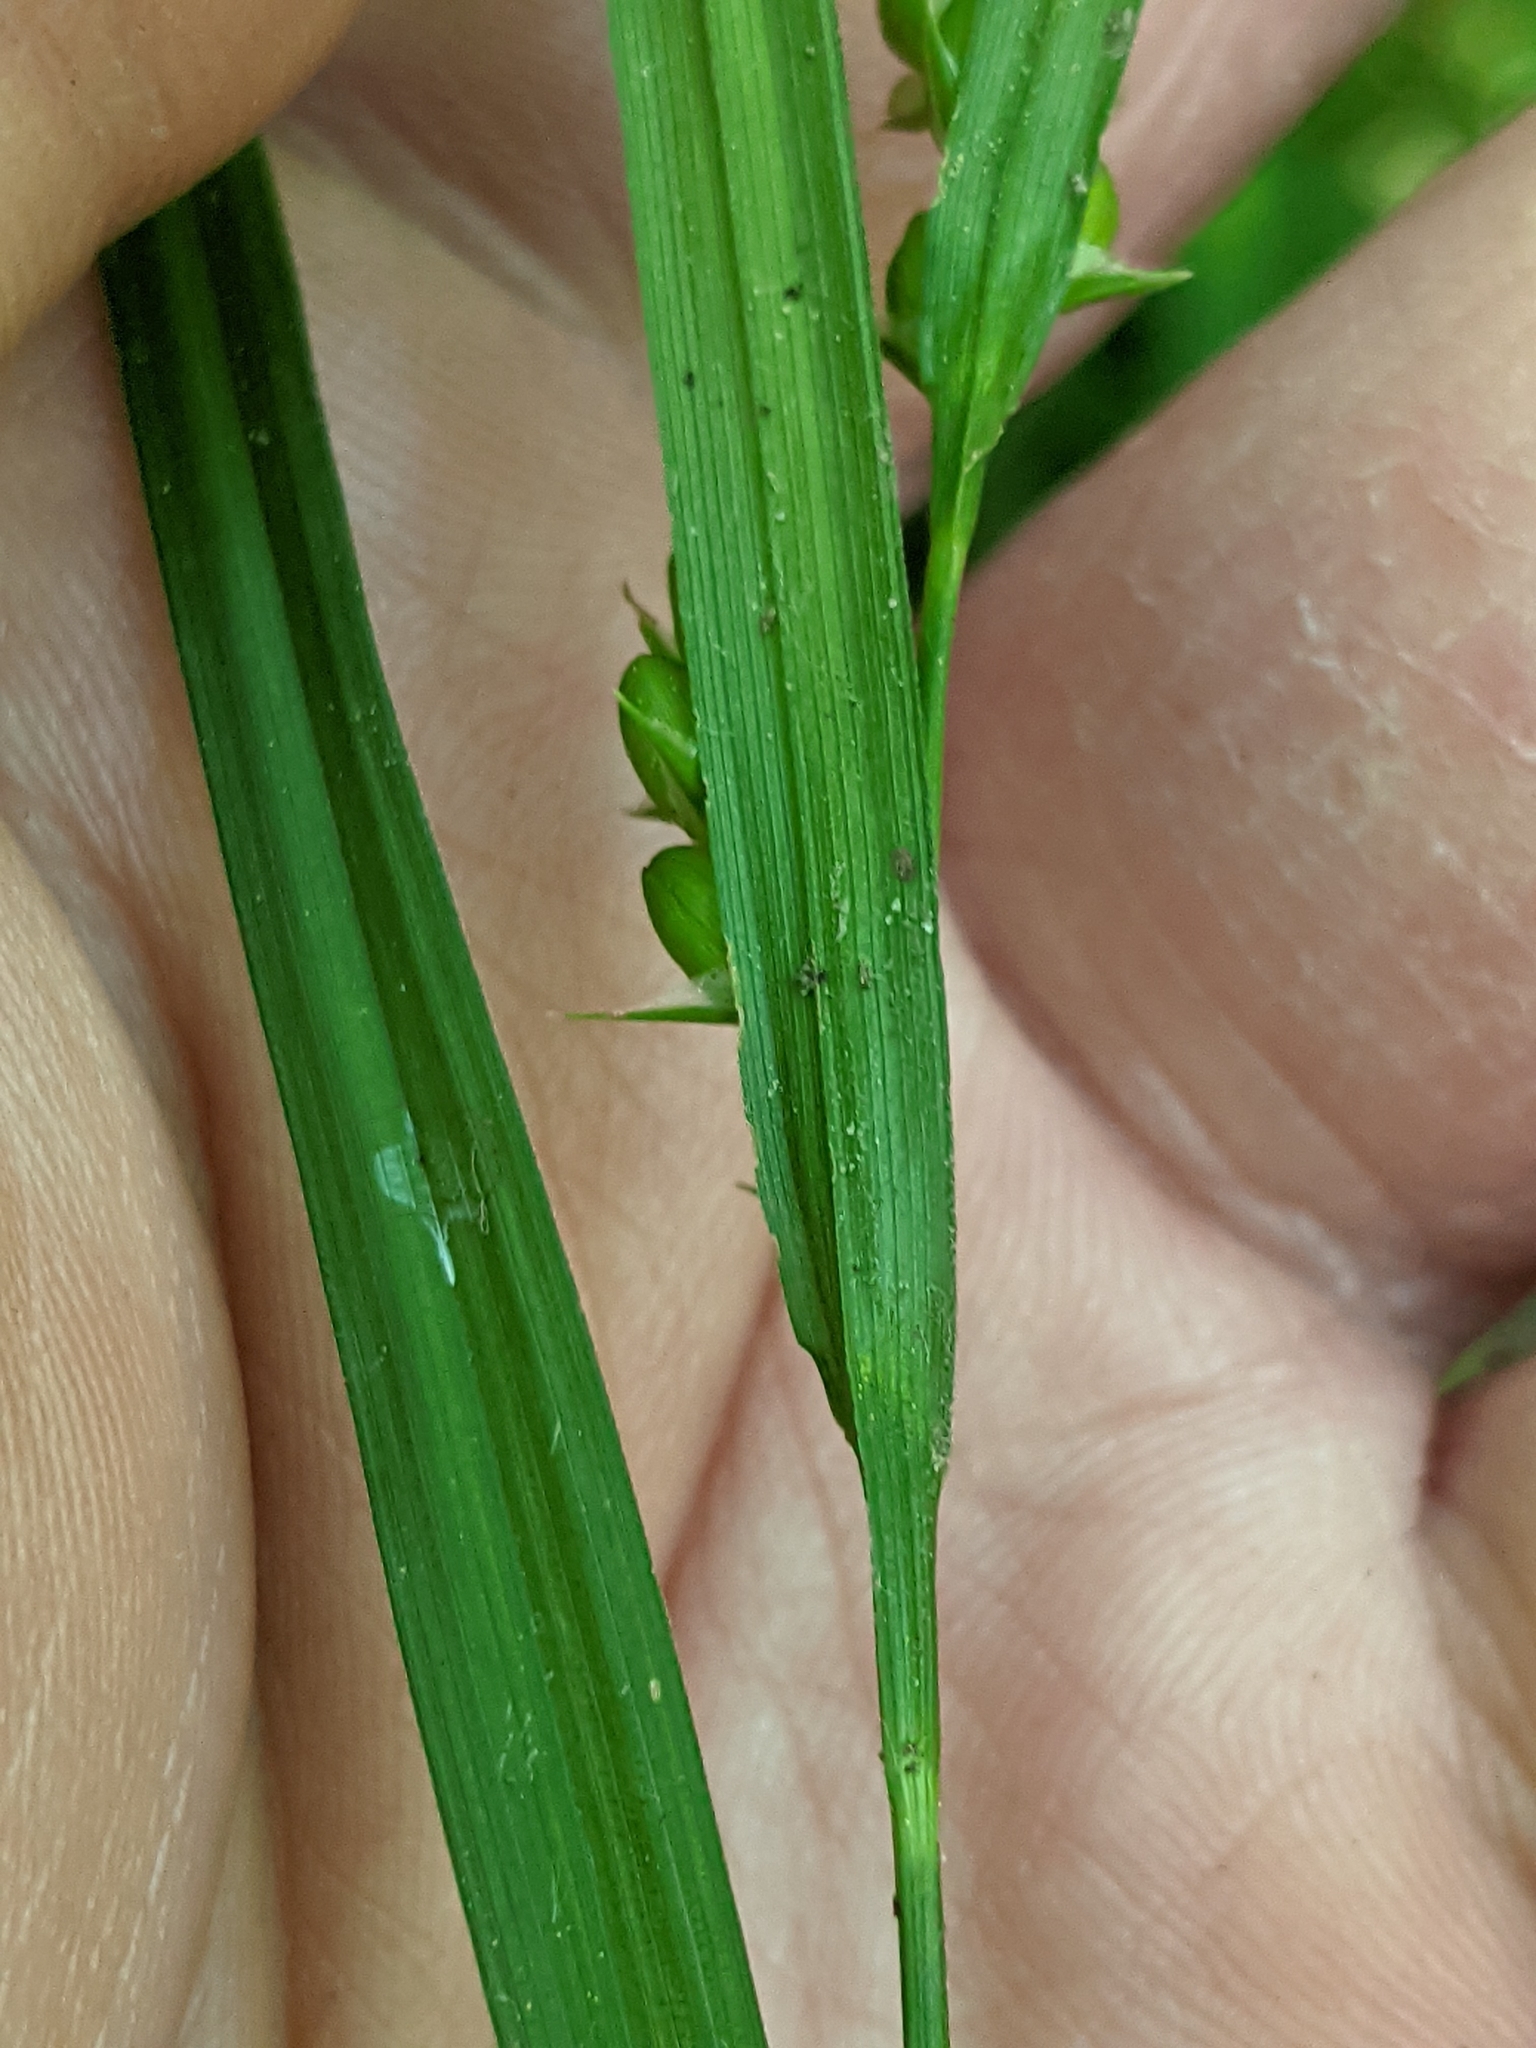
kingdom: Plantae
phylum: Tracheophyta
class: Liliopsida
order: Poales
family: Cyperaceae
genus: Carex
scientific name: Carex grisea
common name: Eastern narrow-leaved sedge
